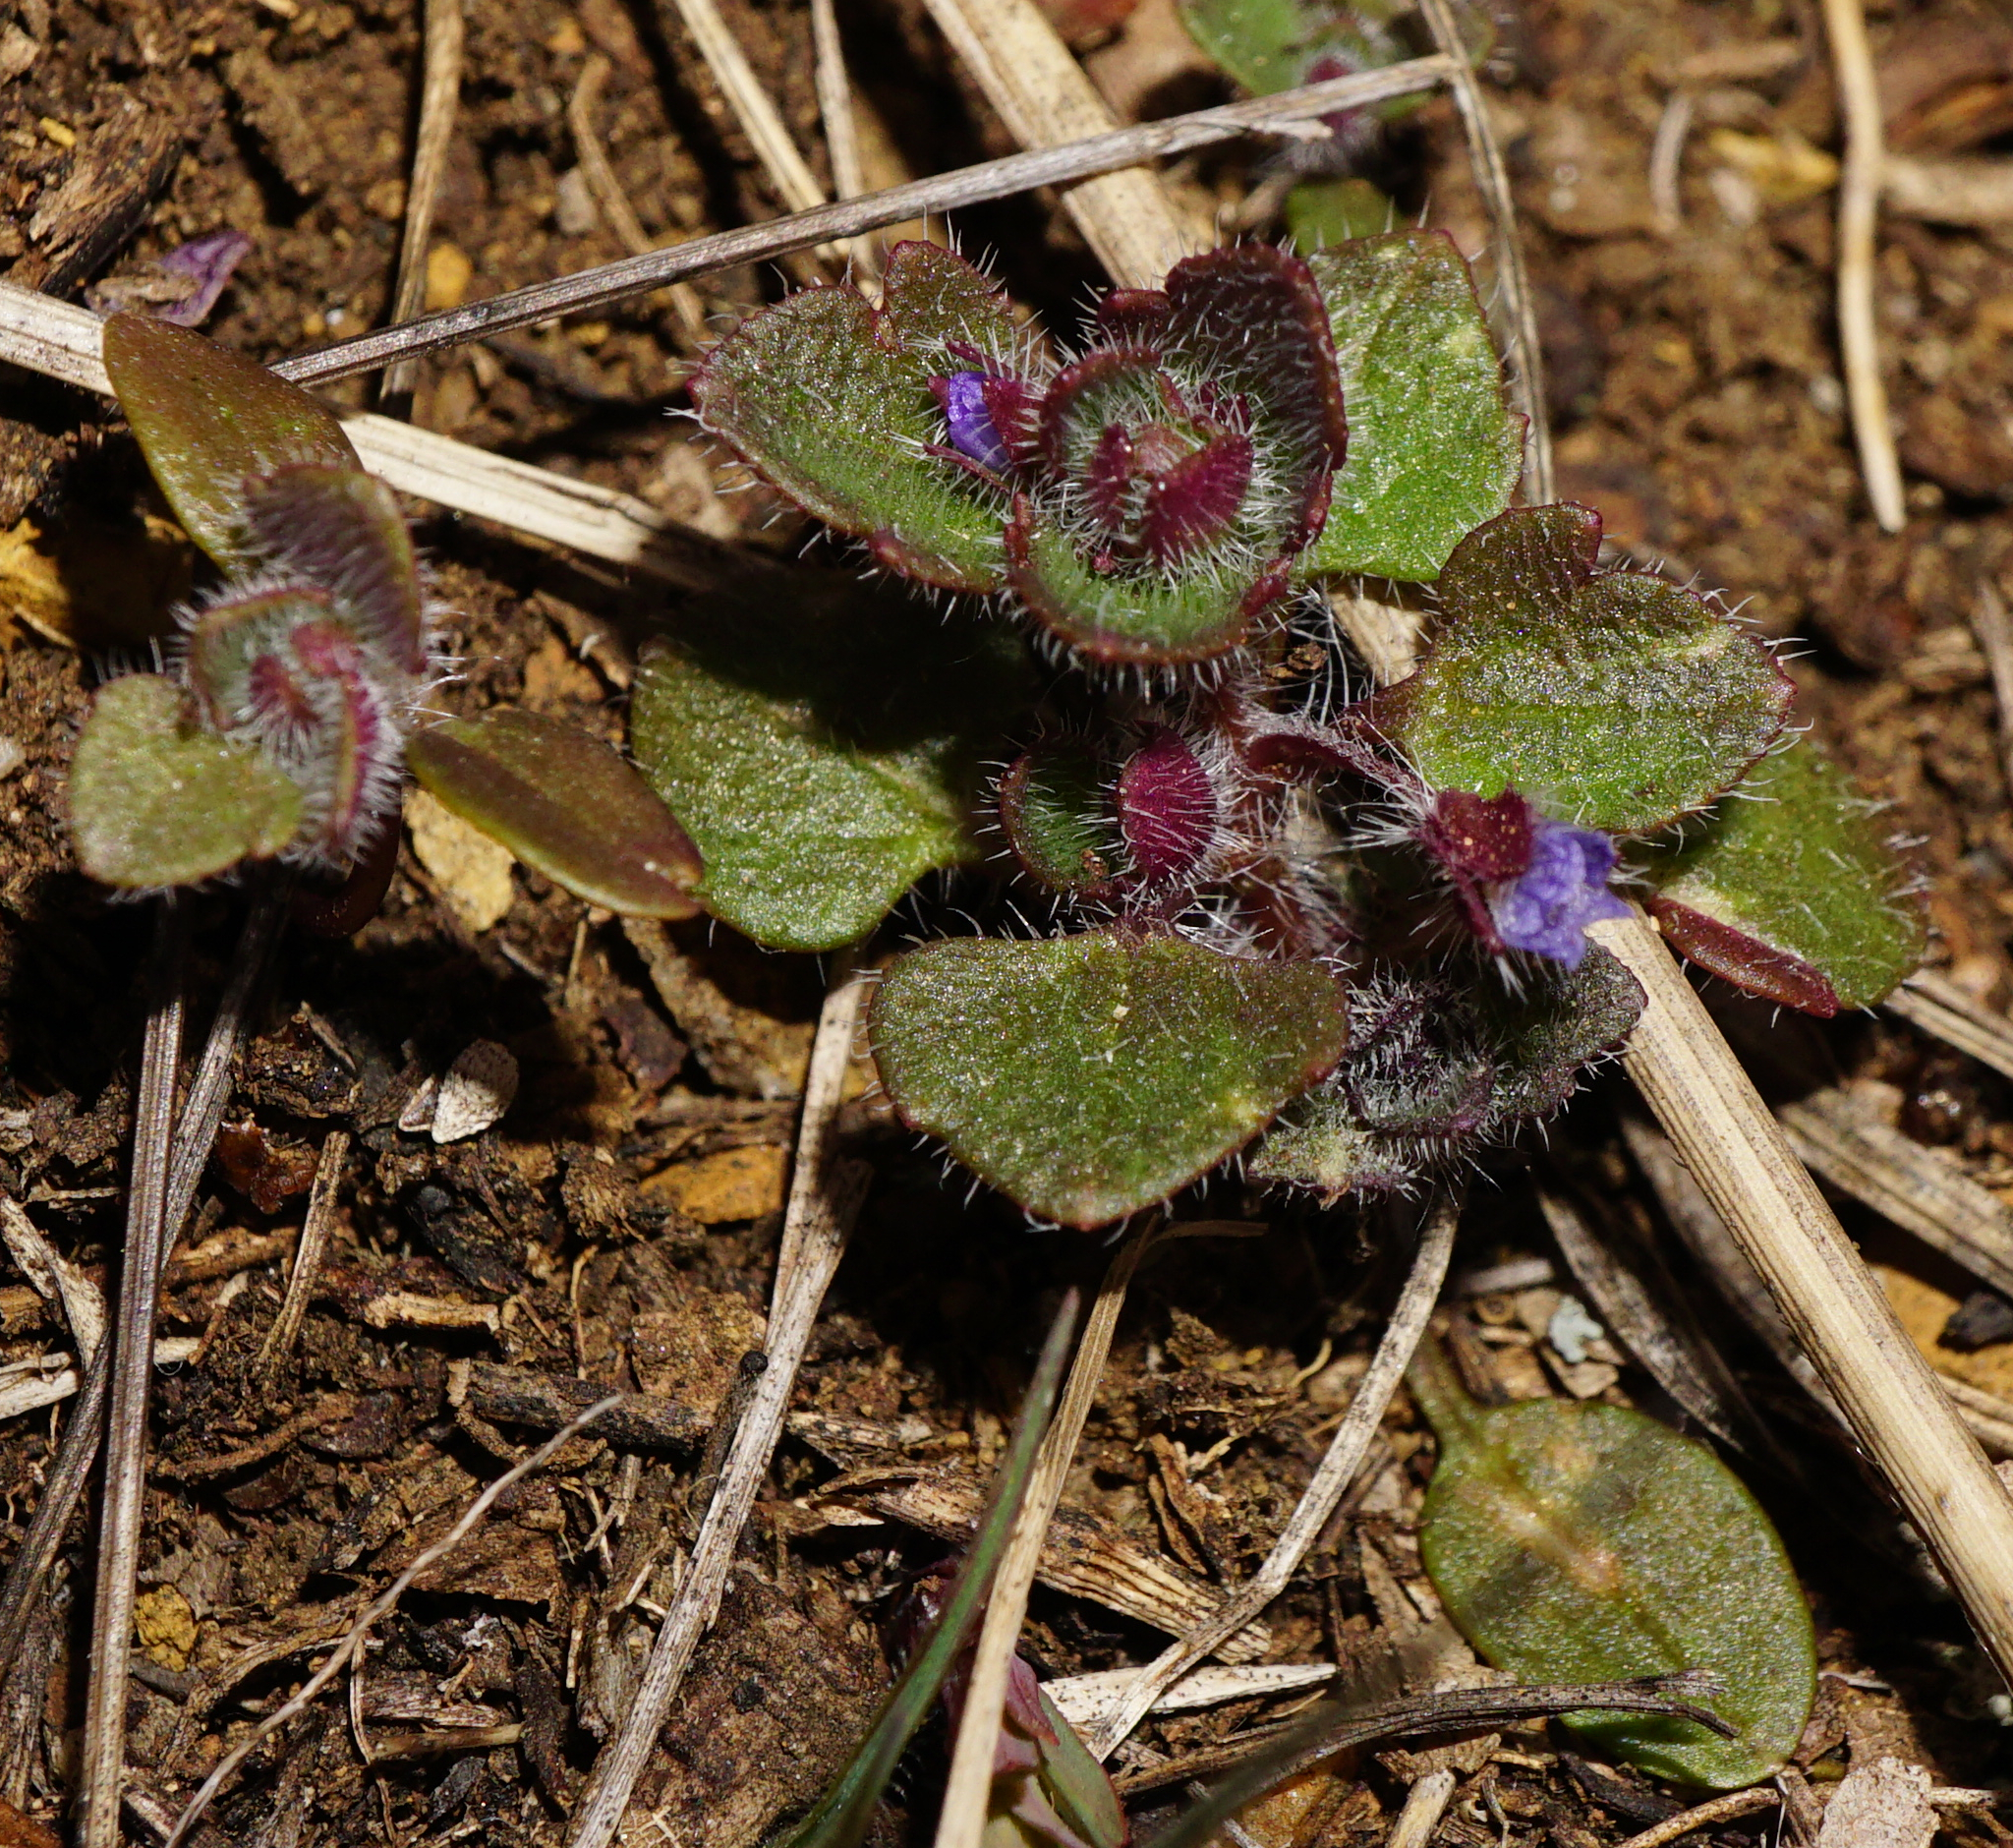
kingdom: Plantae
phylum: Tracheophyta
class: Magnoliopsida
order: Lamiales
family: Plantaginaceae
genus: Veronica
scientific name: Veronica hederifolia
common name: Ivy-leaved speedwell
